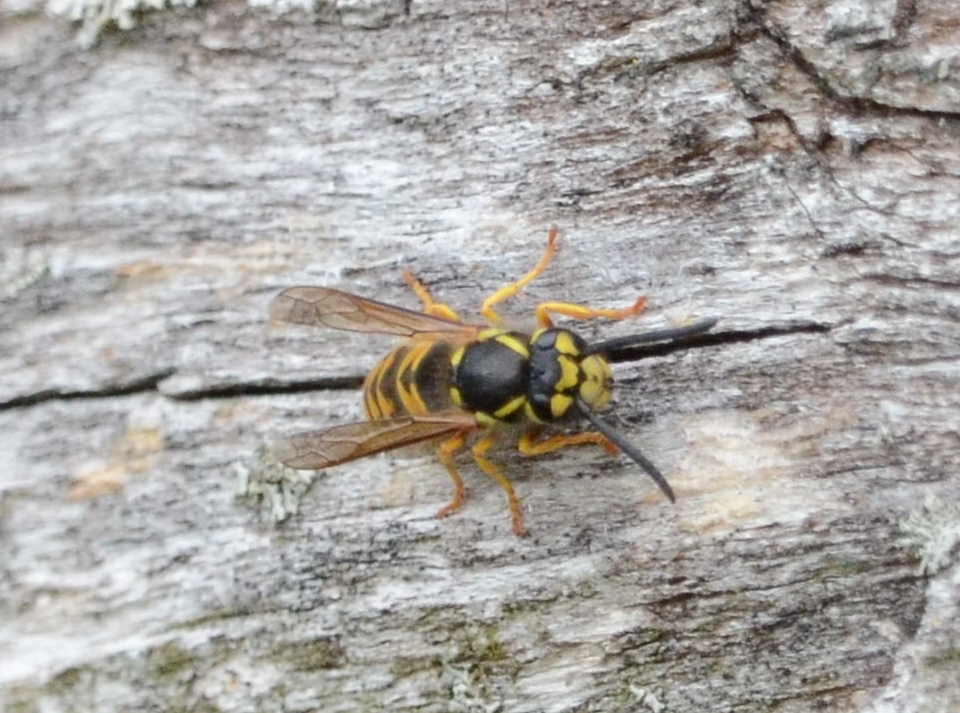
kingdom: Animalia
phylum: Arthropoda
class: Insecta
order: Hymenoptera
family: Vespidae
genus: Vespula
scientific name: Vespula germanica
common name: German wasp
